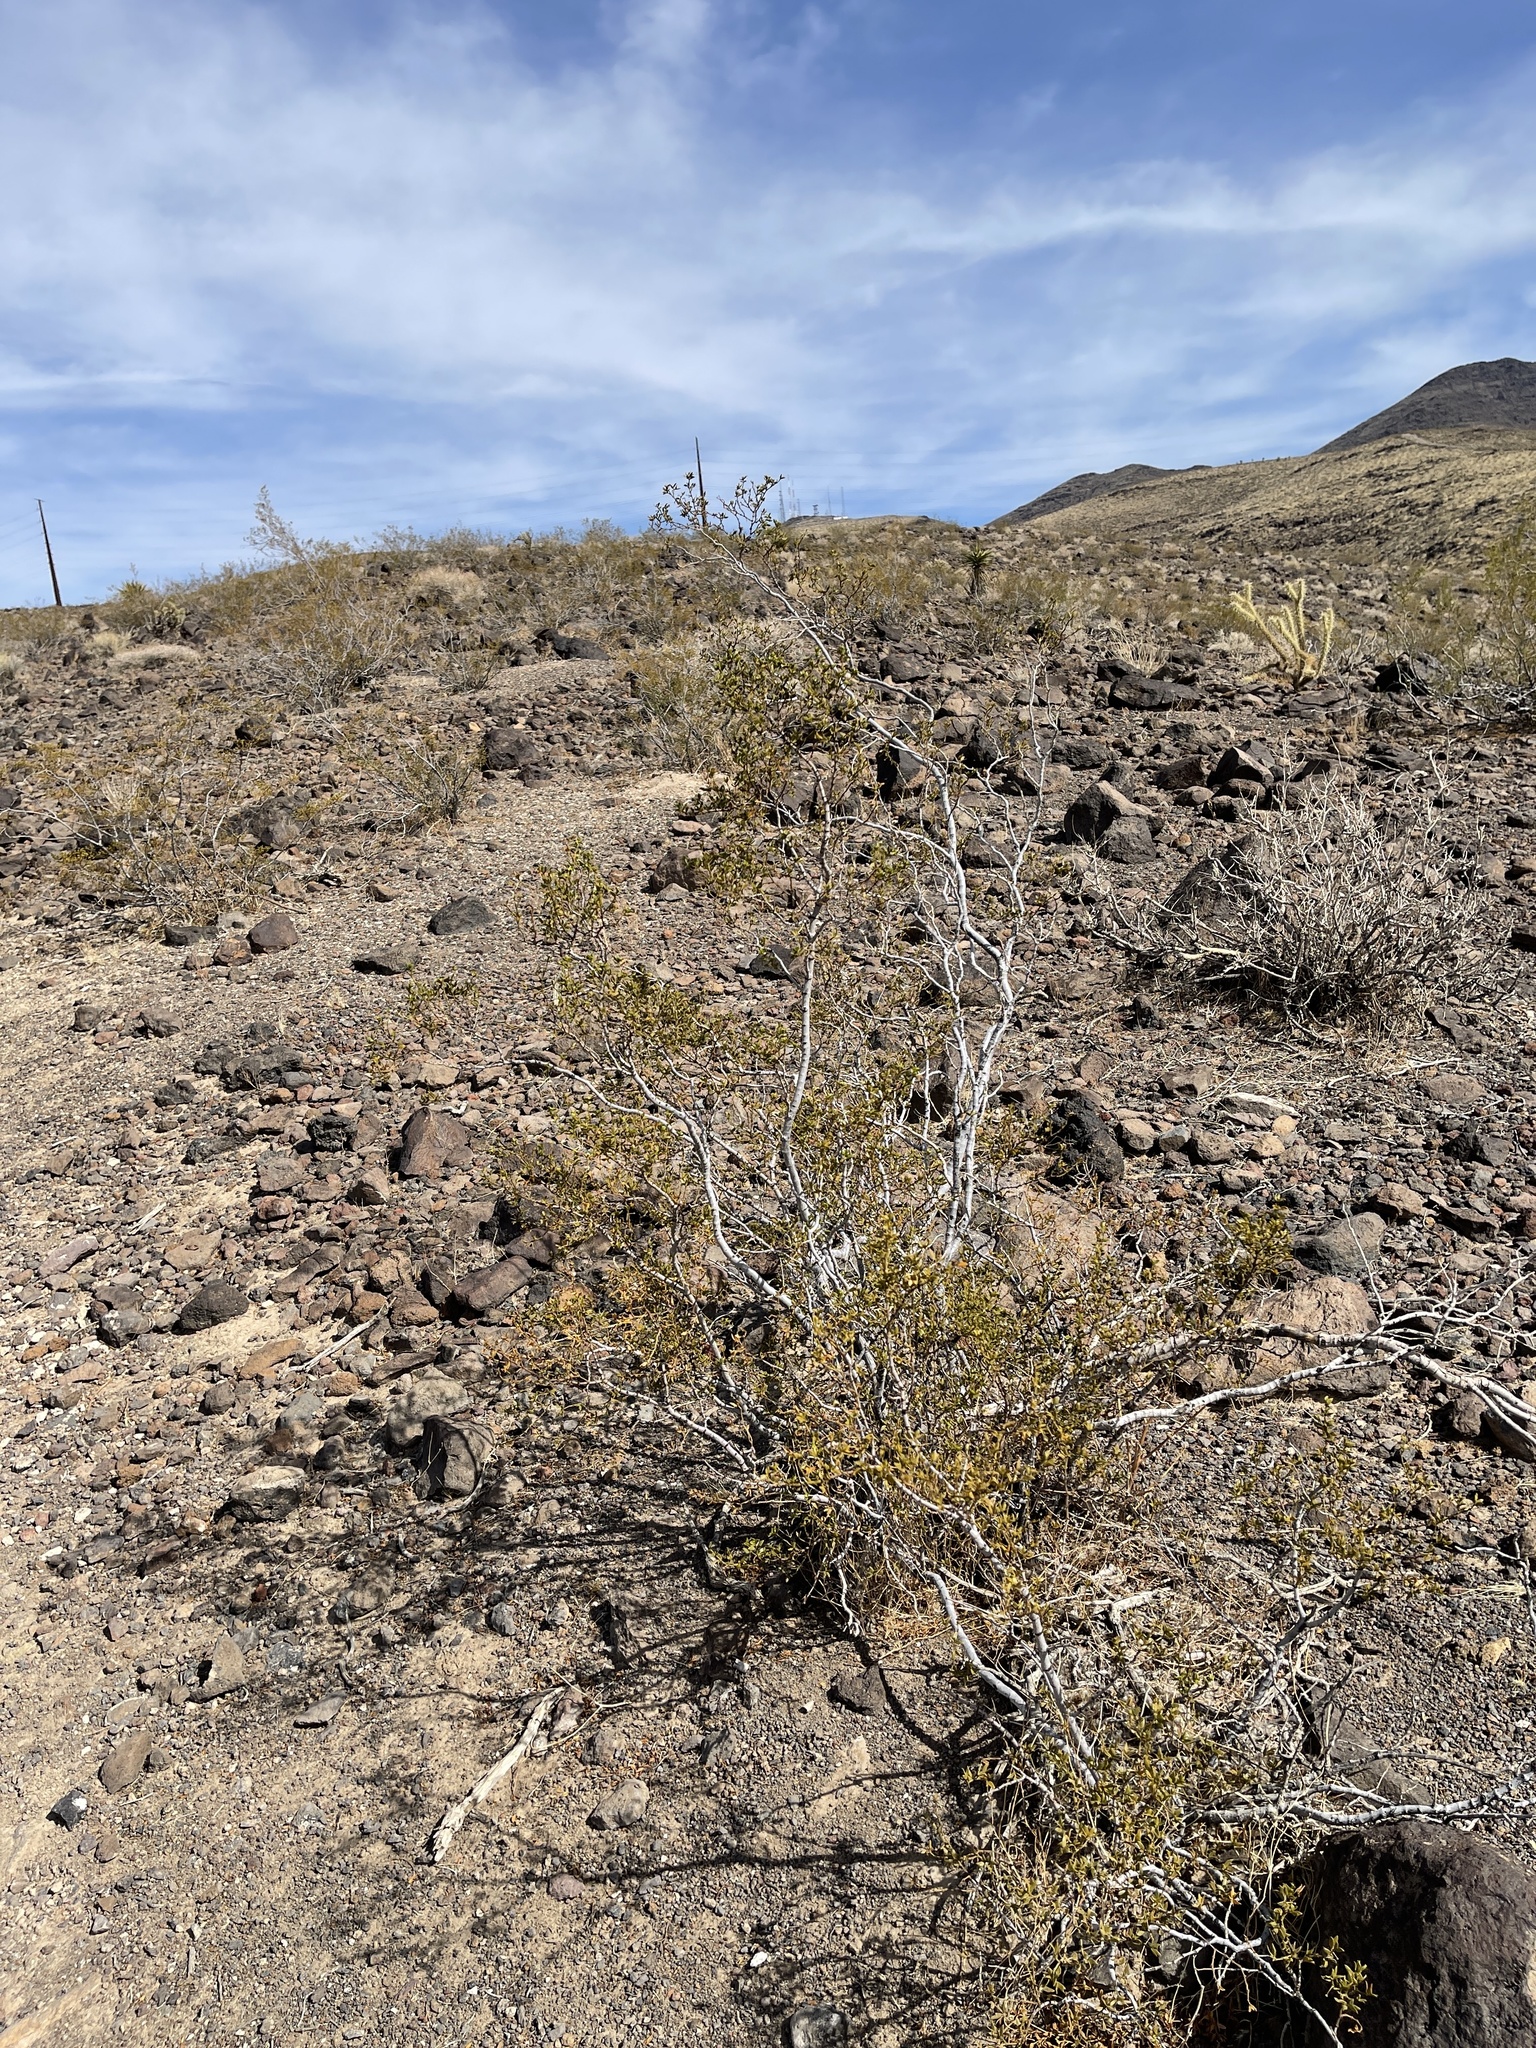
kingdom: Plantae
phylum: Tracheophyta
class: Magnoliopsida
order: Zygophyllales
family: Zygophyllaceae
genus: Larrea
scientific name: Larrea tridentata
